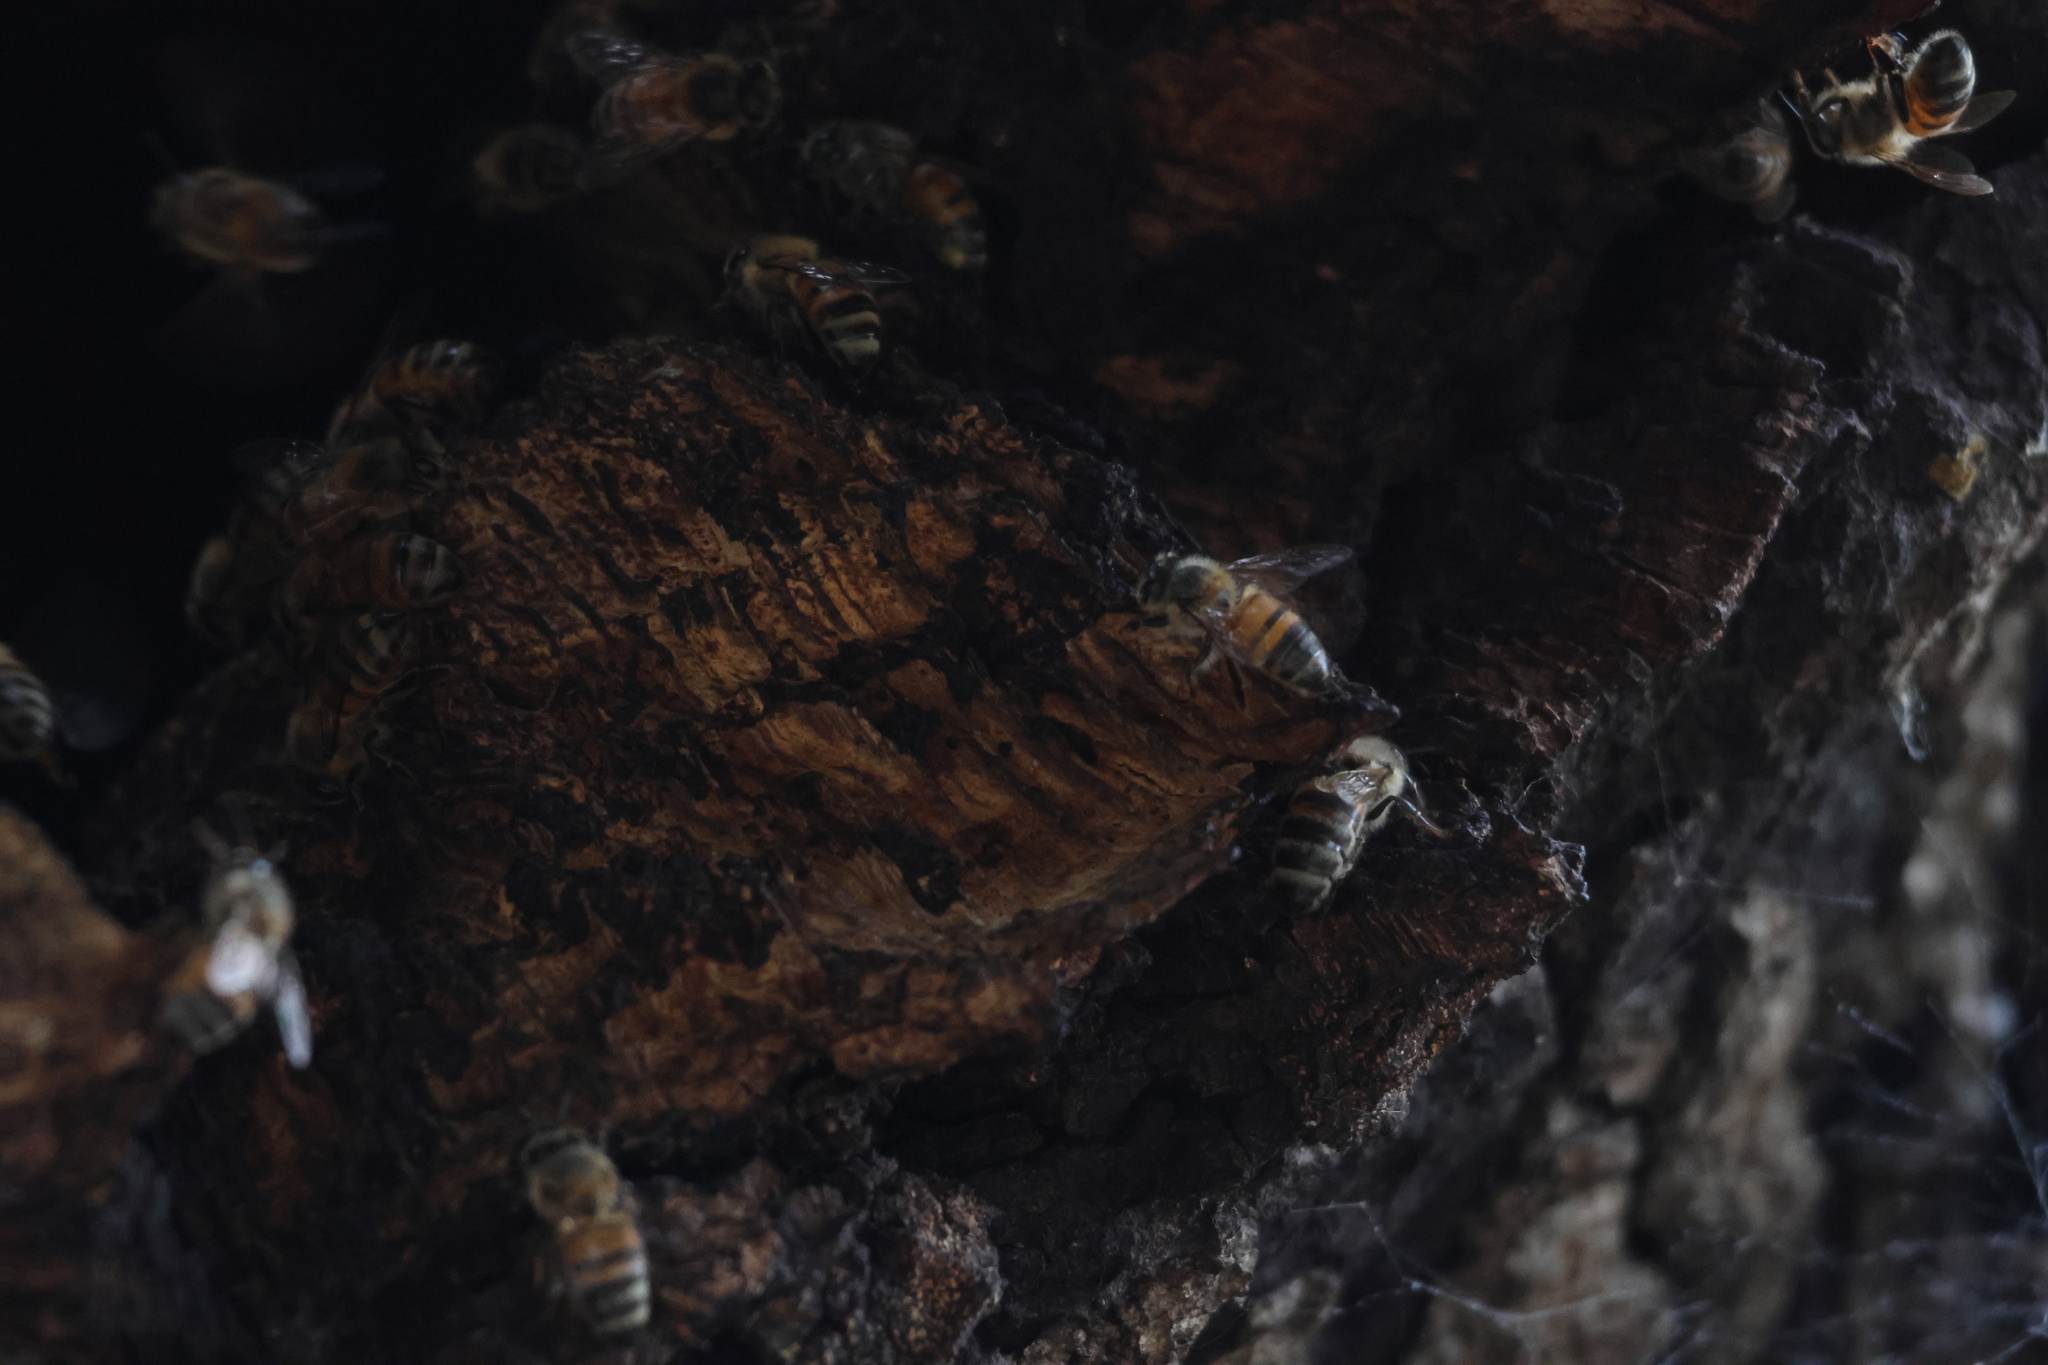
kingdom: Animalia
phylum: Arthropoda
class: Insecta
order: Hymenoptera
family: Apidae
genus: Apis
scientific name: Apis mellifera
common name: Honey bee
